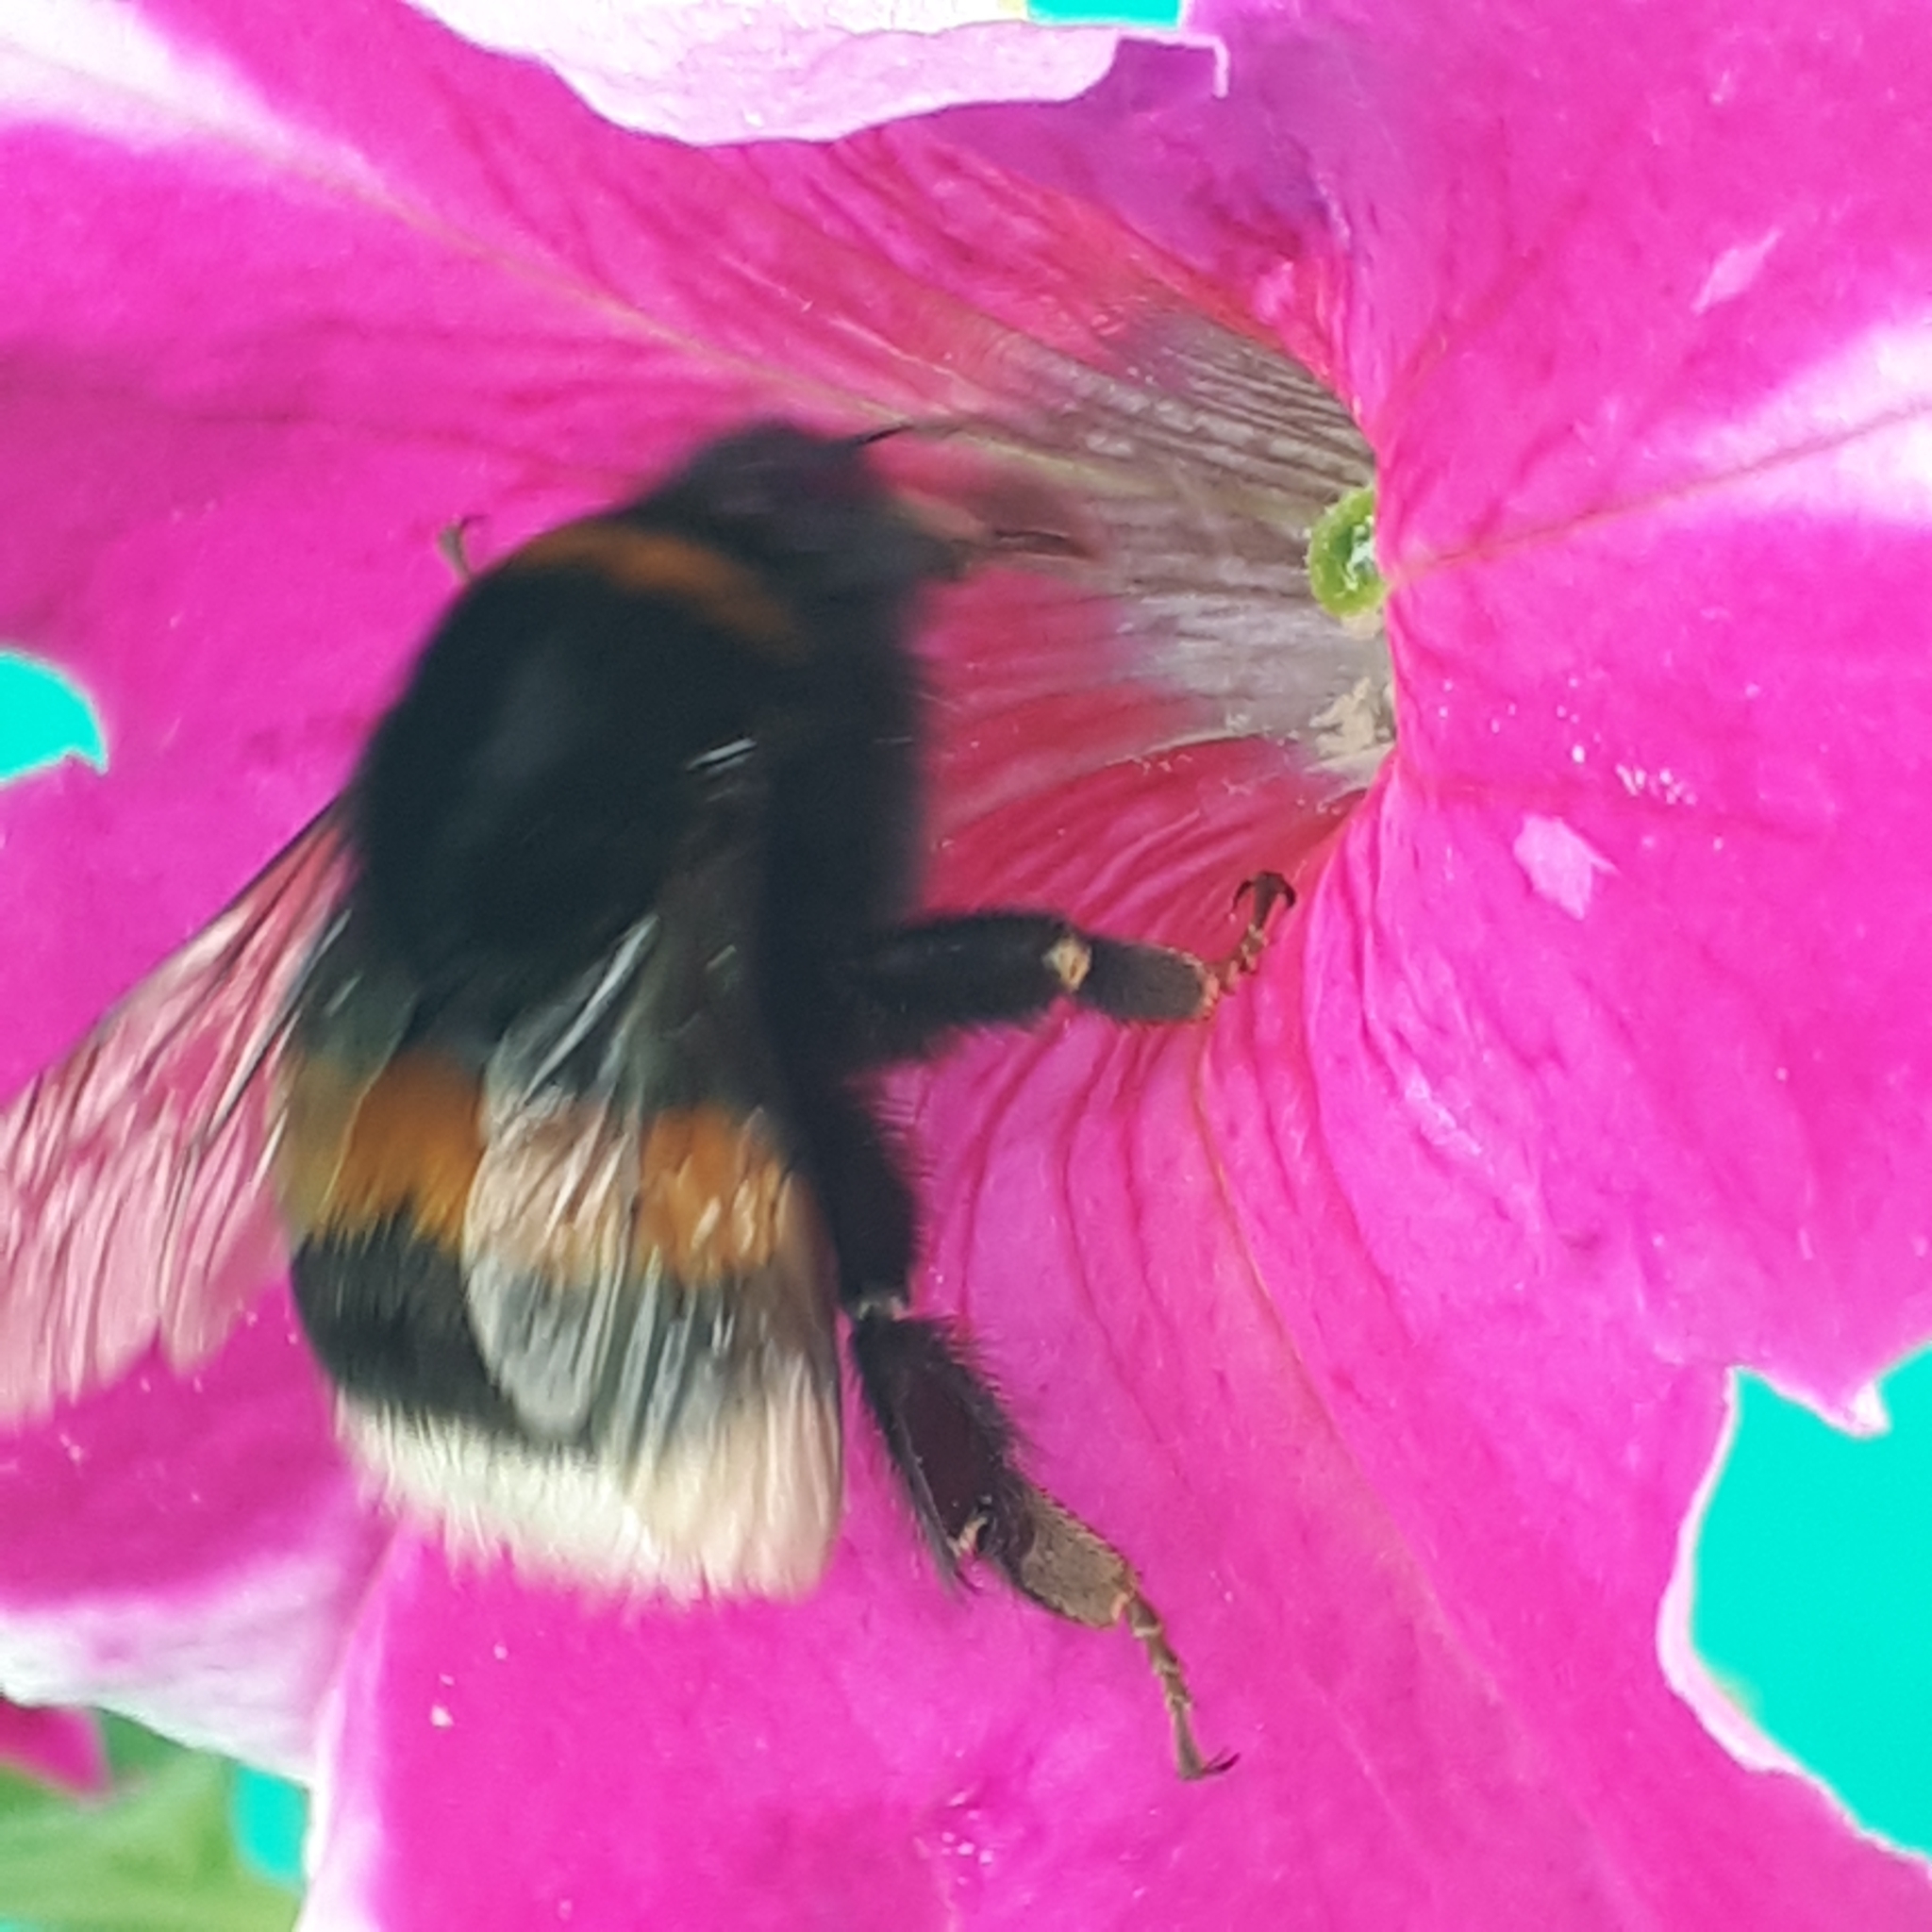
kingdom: Animalia
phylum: Arthropoda
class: Insecta
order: Hymenoptera
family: Apidae
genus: Bombus
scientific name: Bombus terrestris
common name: Buff-tailed bumblebee
